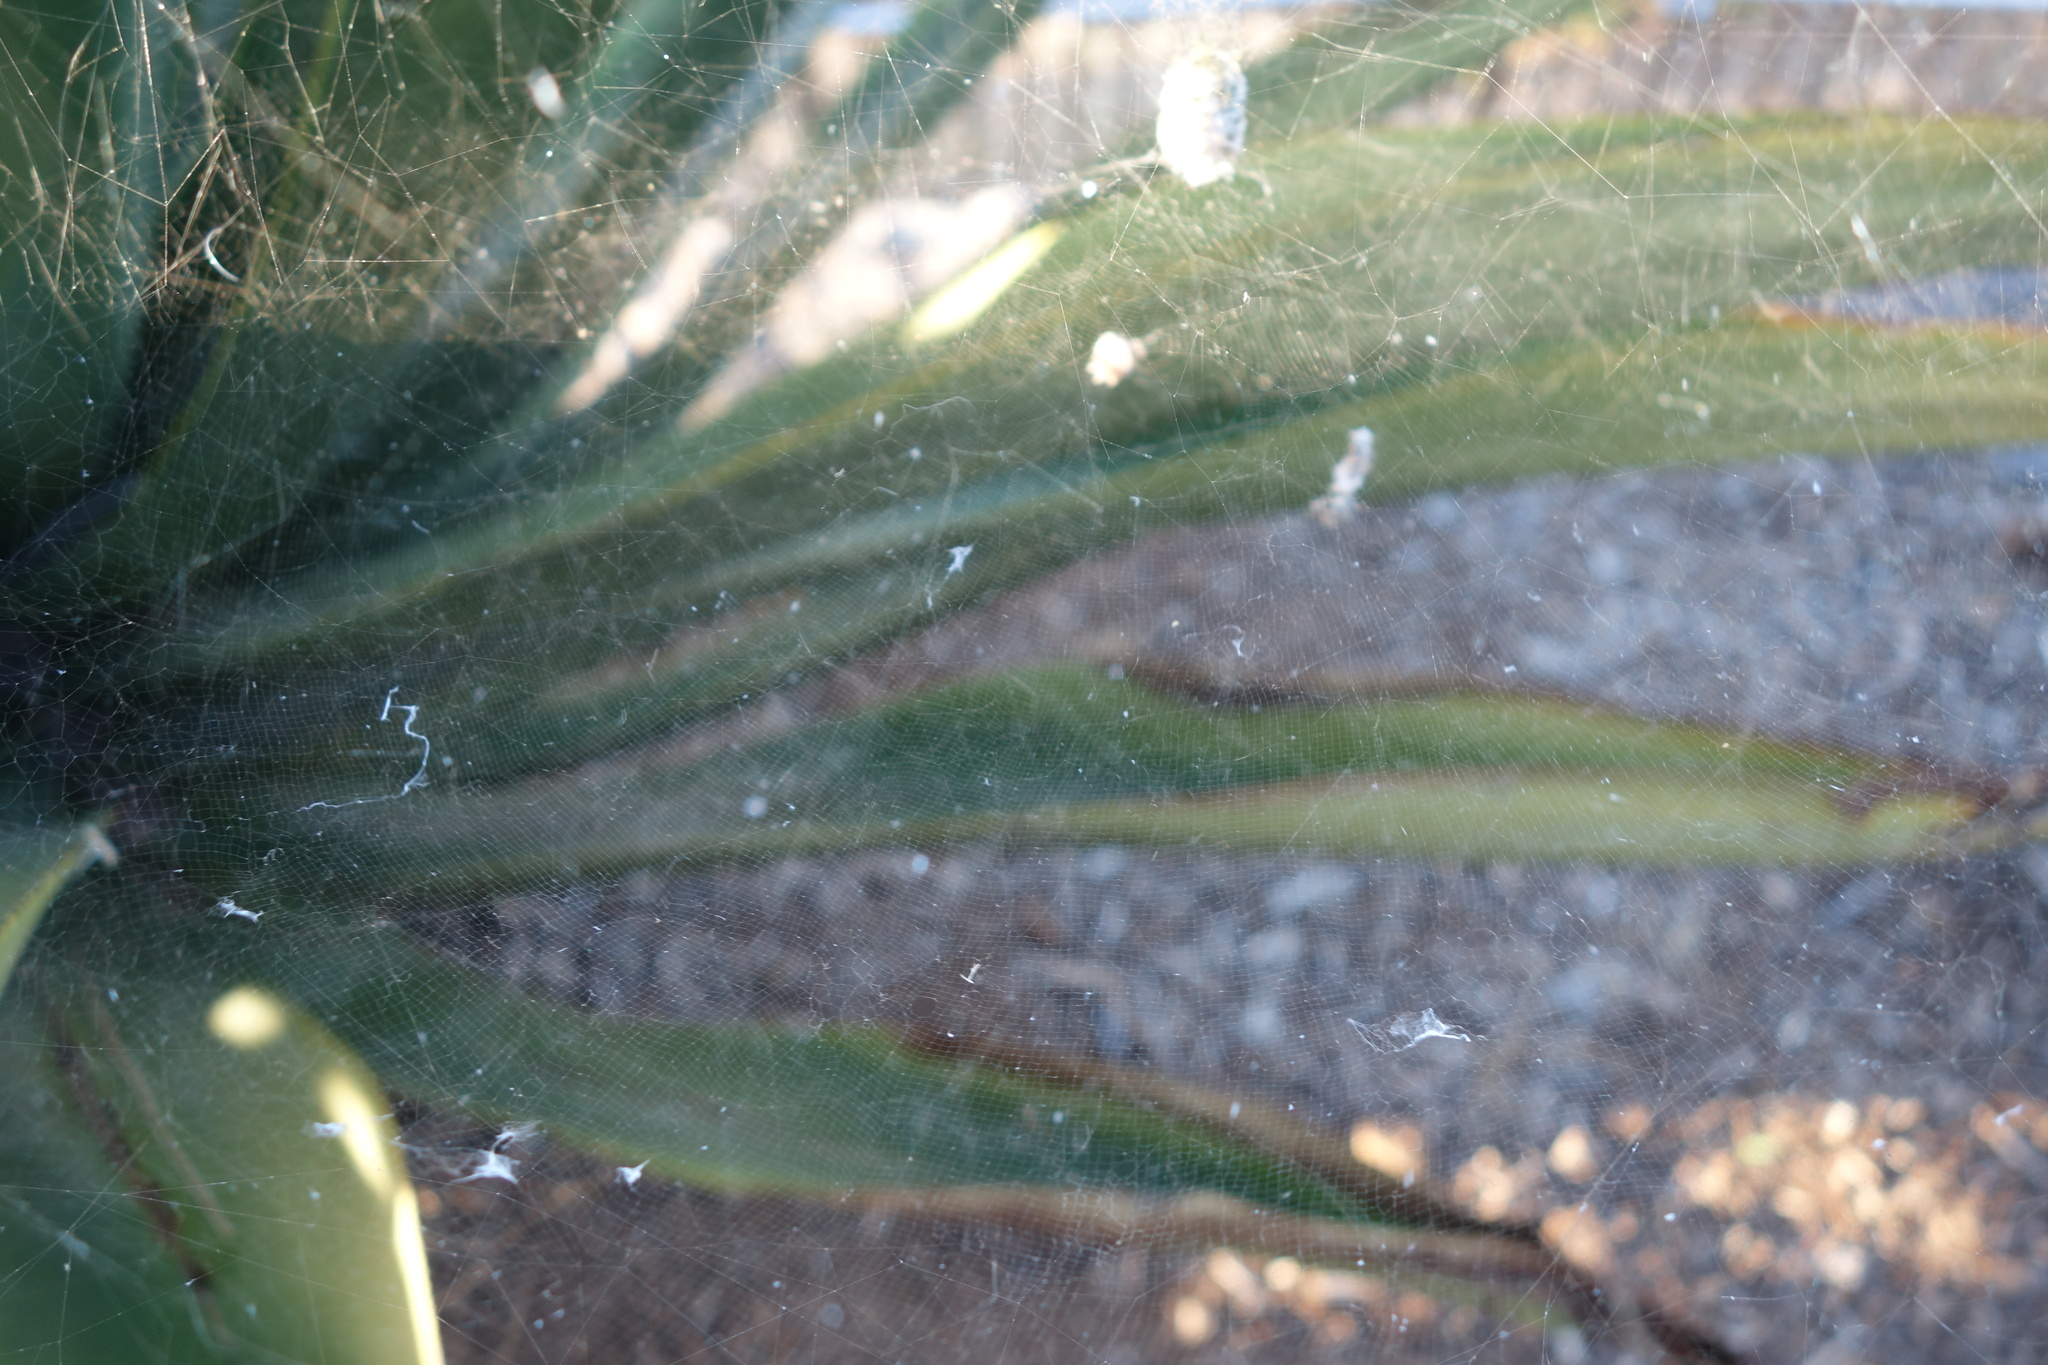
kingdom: Animalia
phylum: Arthropoda
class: Arachnida
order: Araneae
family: Araneidae
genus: Cyrtophora
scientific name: Cyrtophora citricola
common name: Orb weavers
